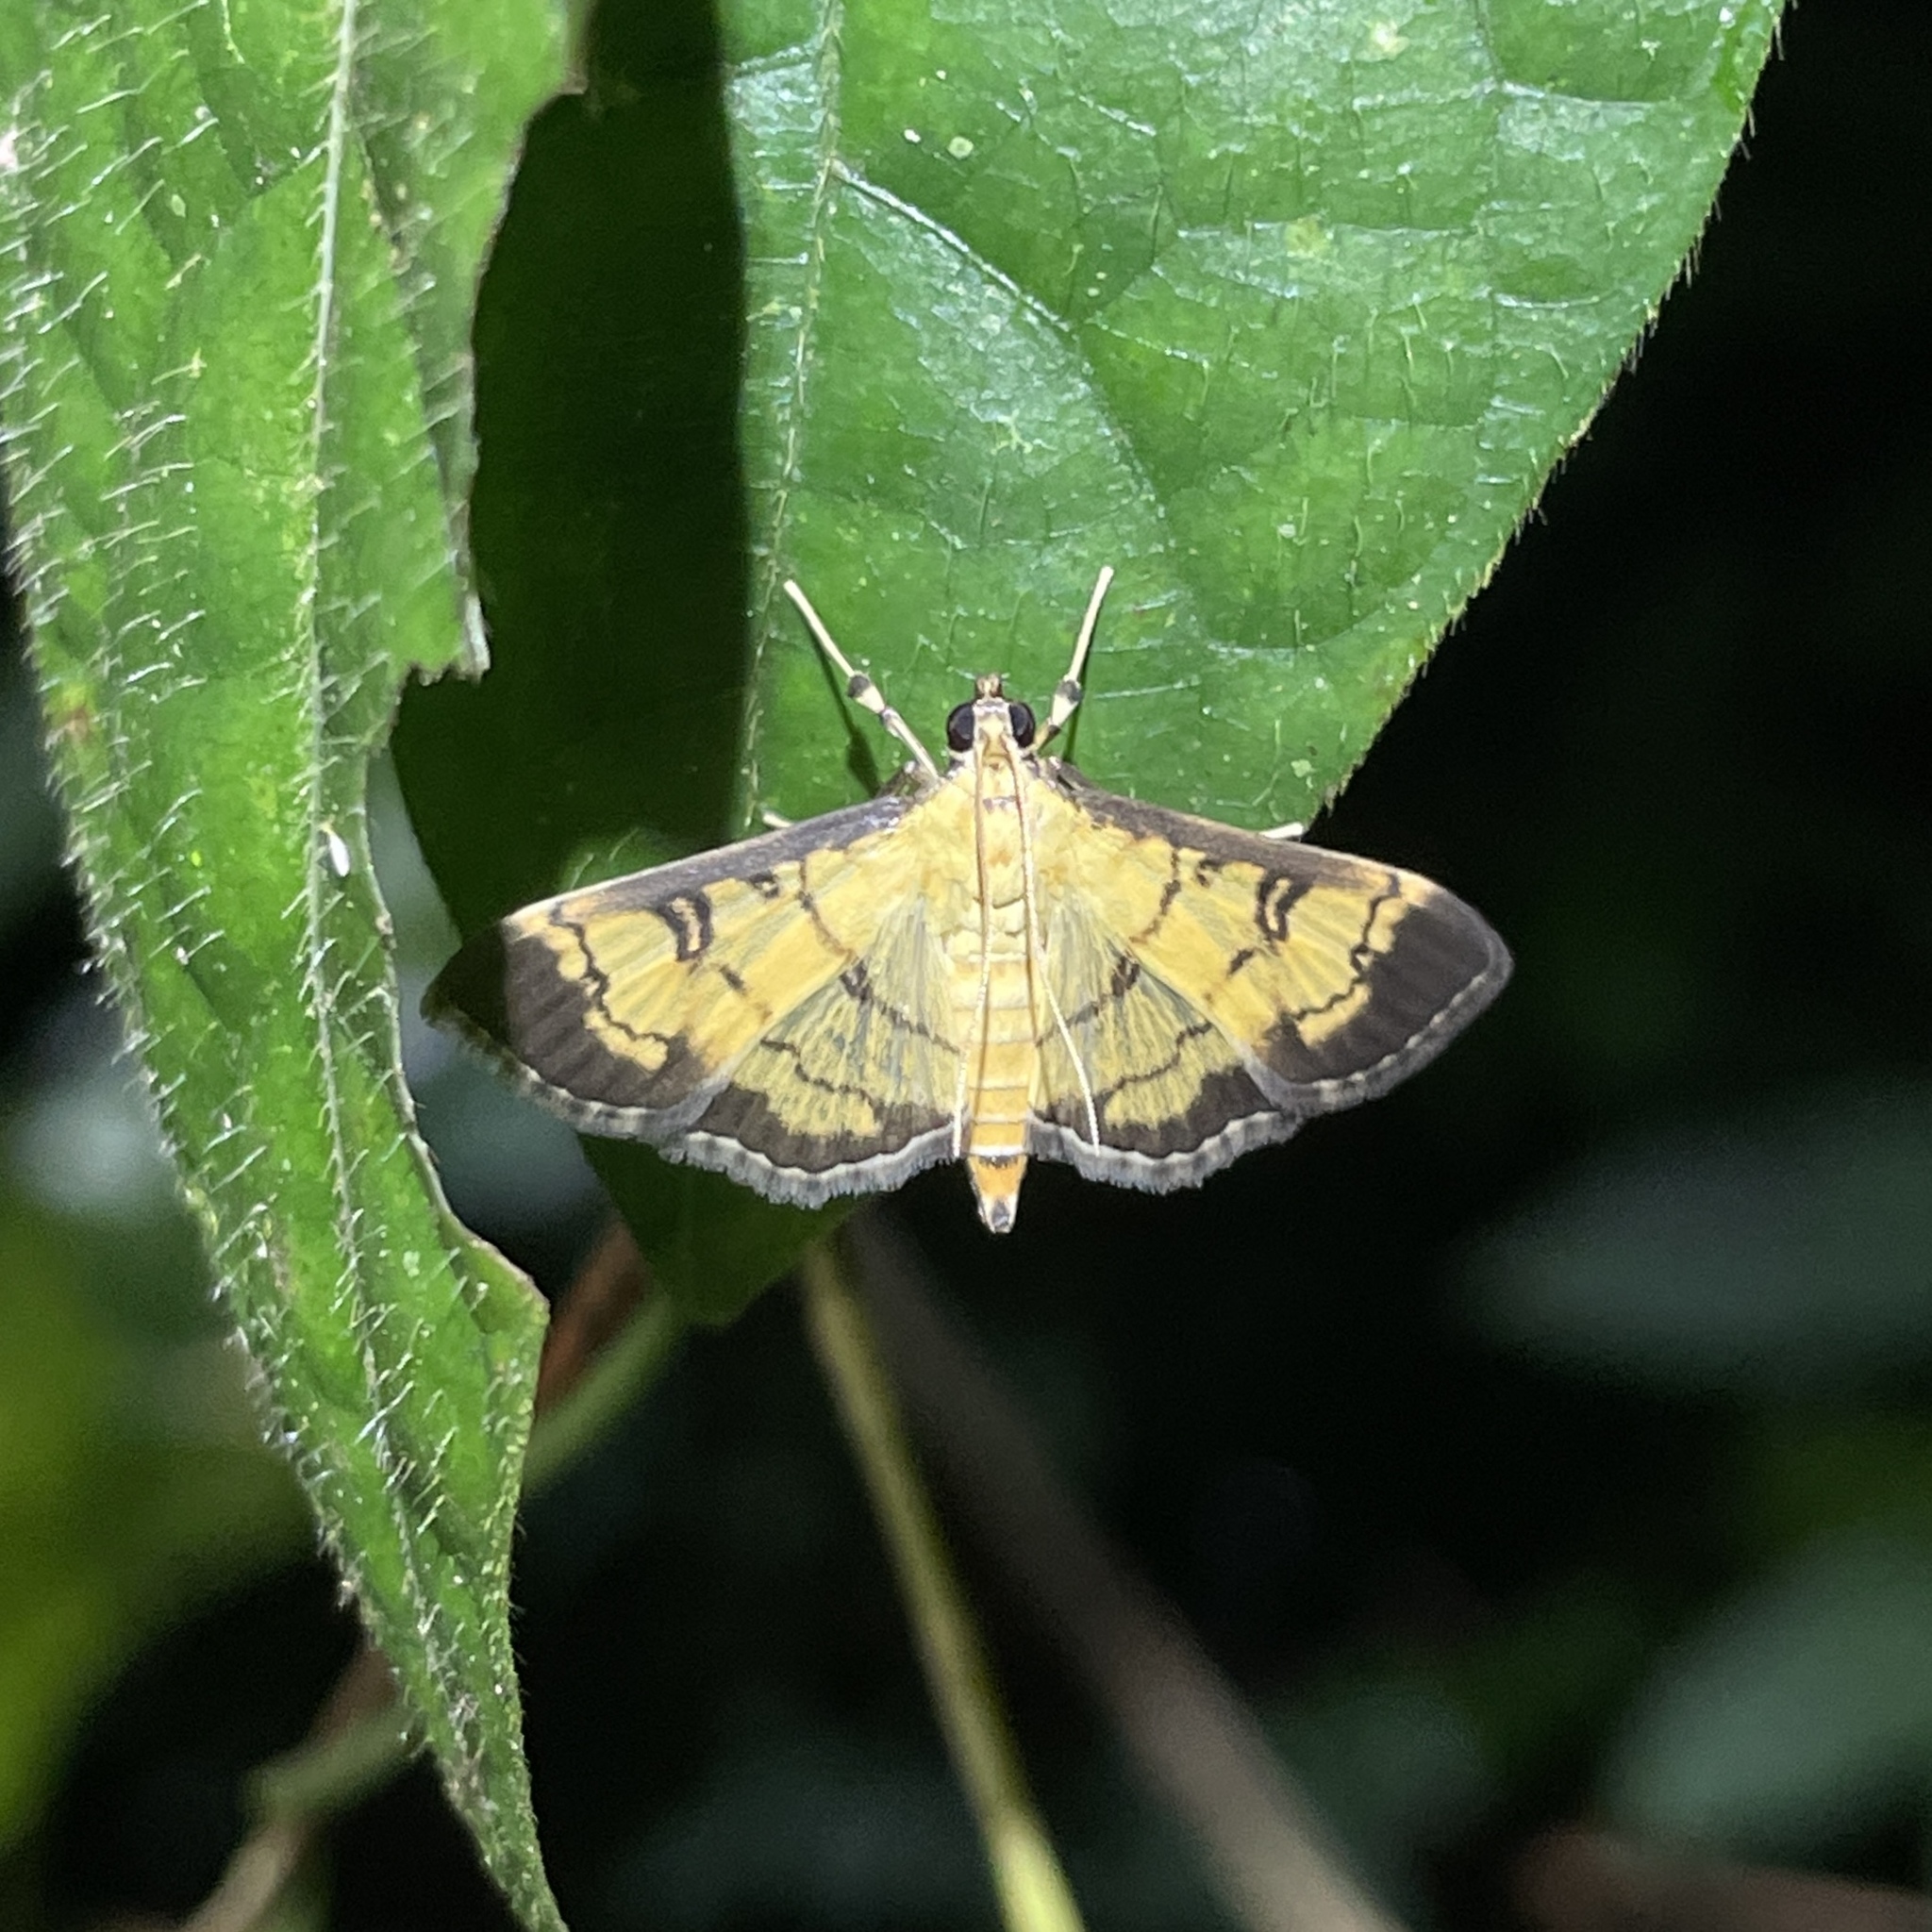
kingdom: Animalia
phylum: Arthropoda
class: Insecta
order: Lepidoptera
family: Crambidae
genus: Ategumia
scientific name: Ategumia ebulealis
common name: Moth
